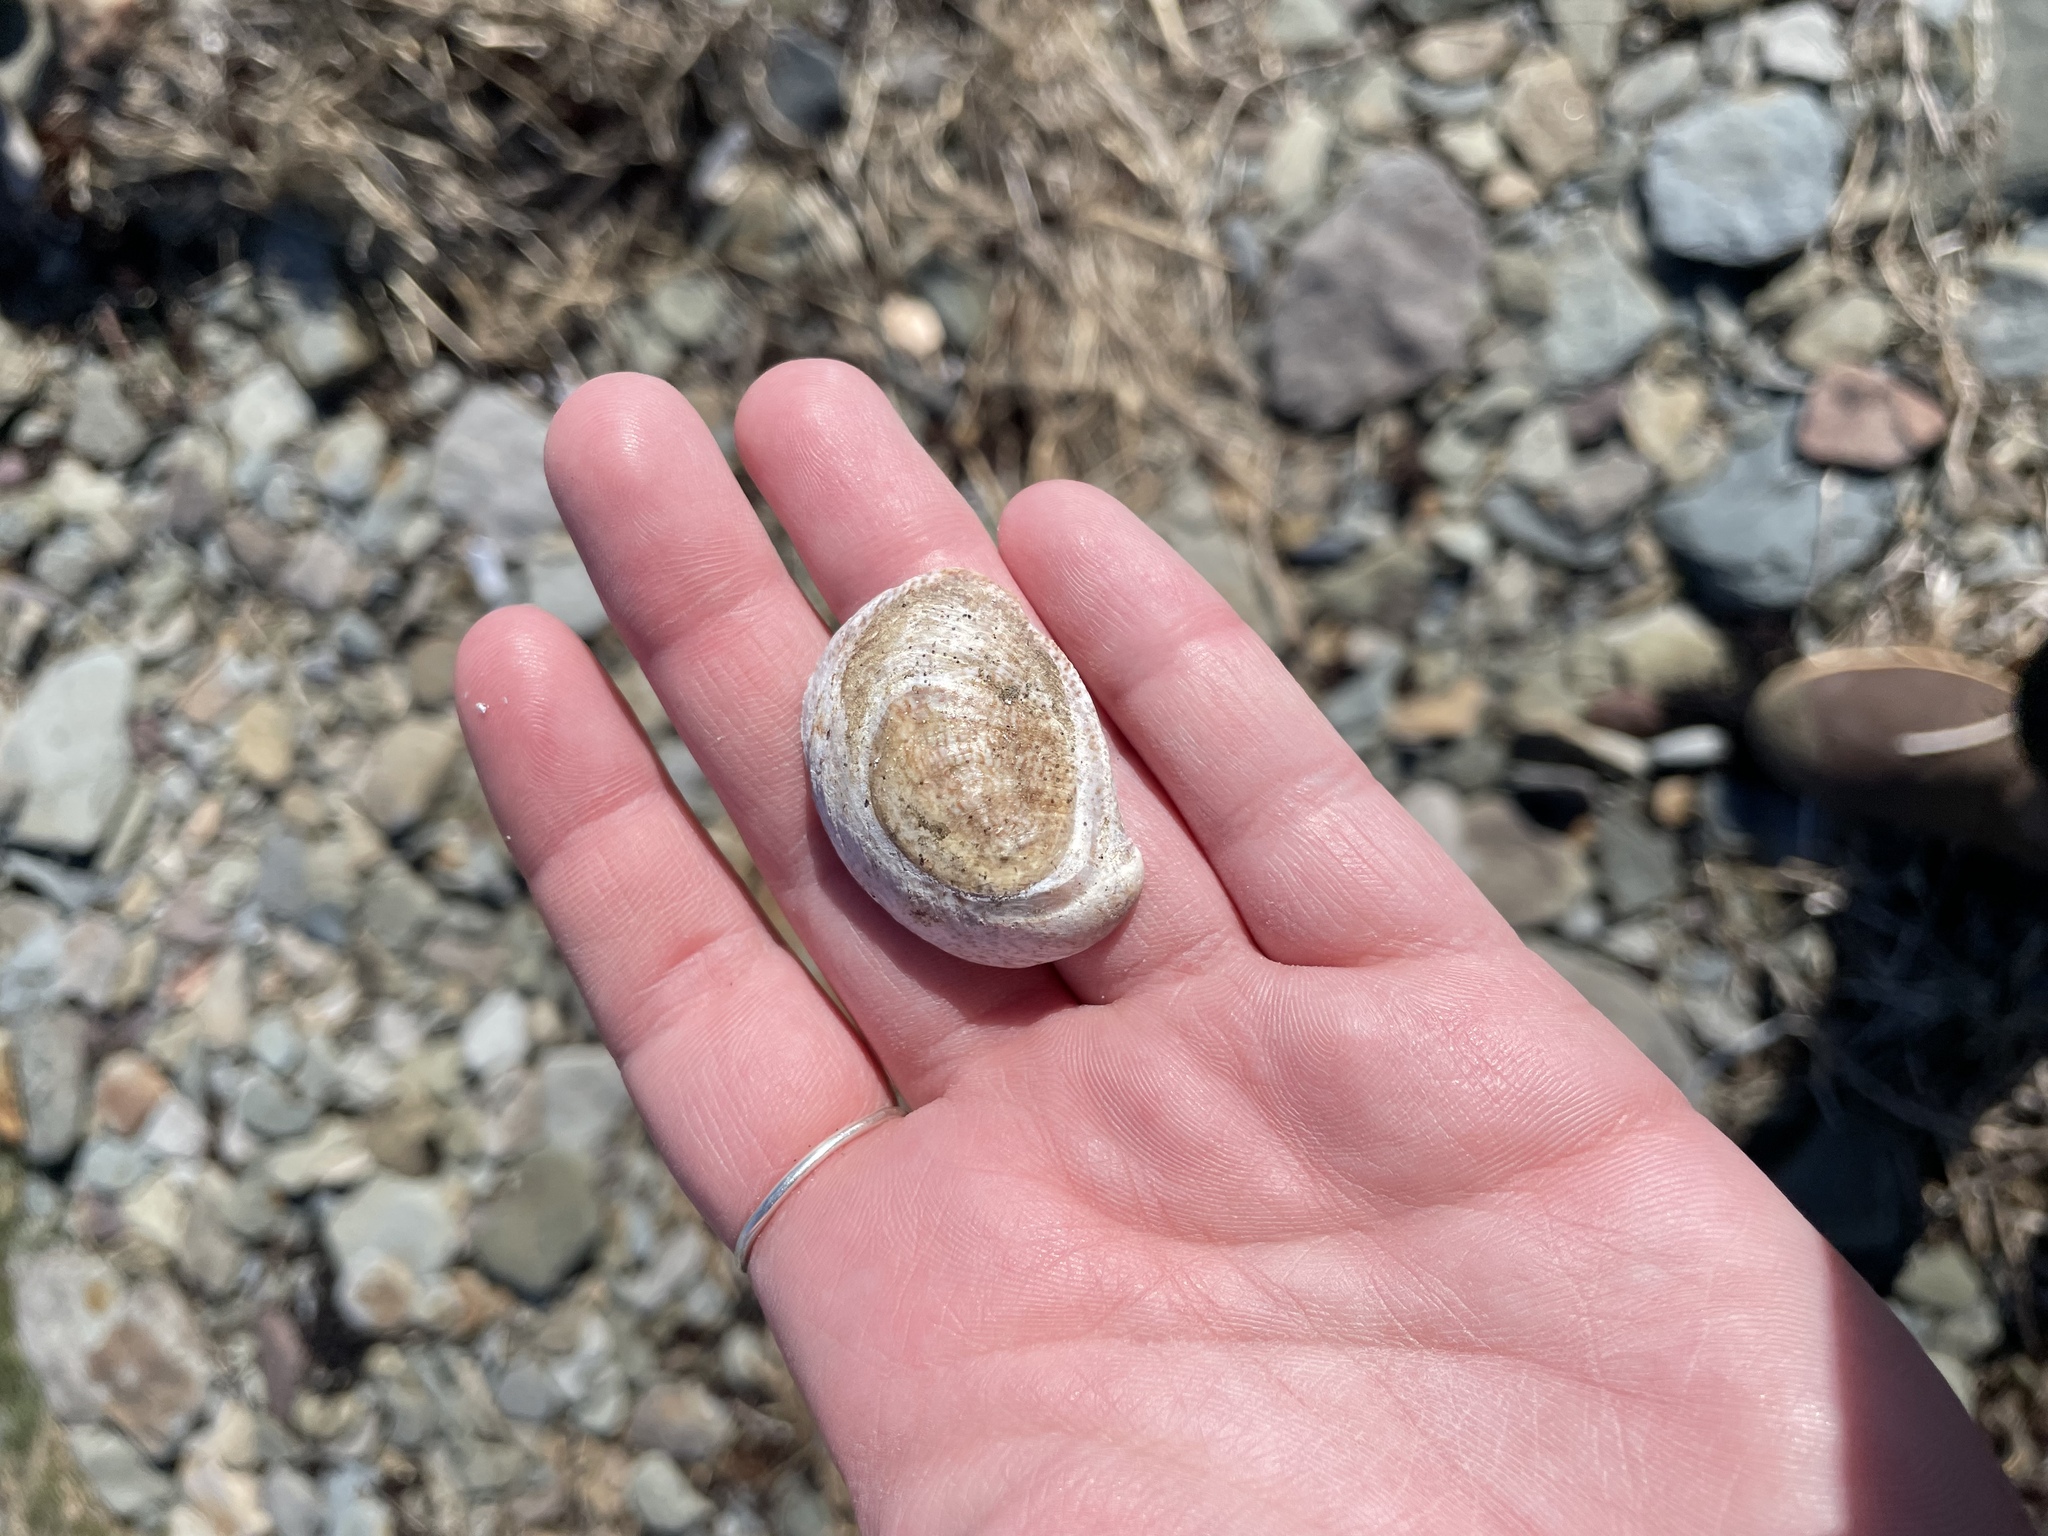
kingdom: Animalia
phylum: Mollusca
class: Gastropoda
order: Littorinimorpha
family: Calyptraeidae
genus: Crepidula
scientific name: Crepidula fornicata
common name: Slipper limpet
